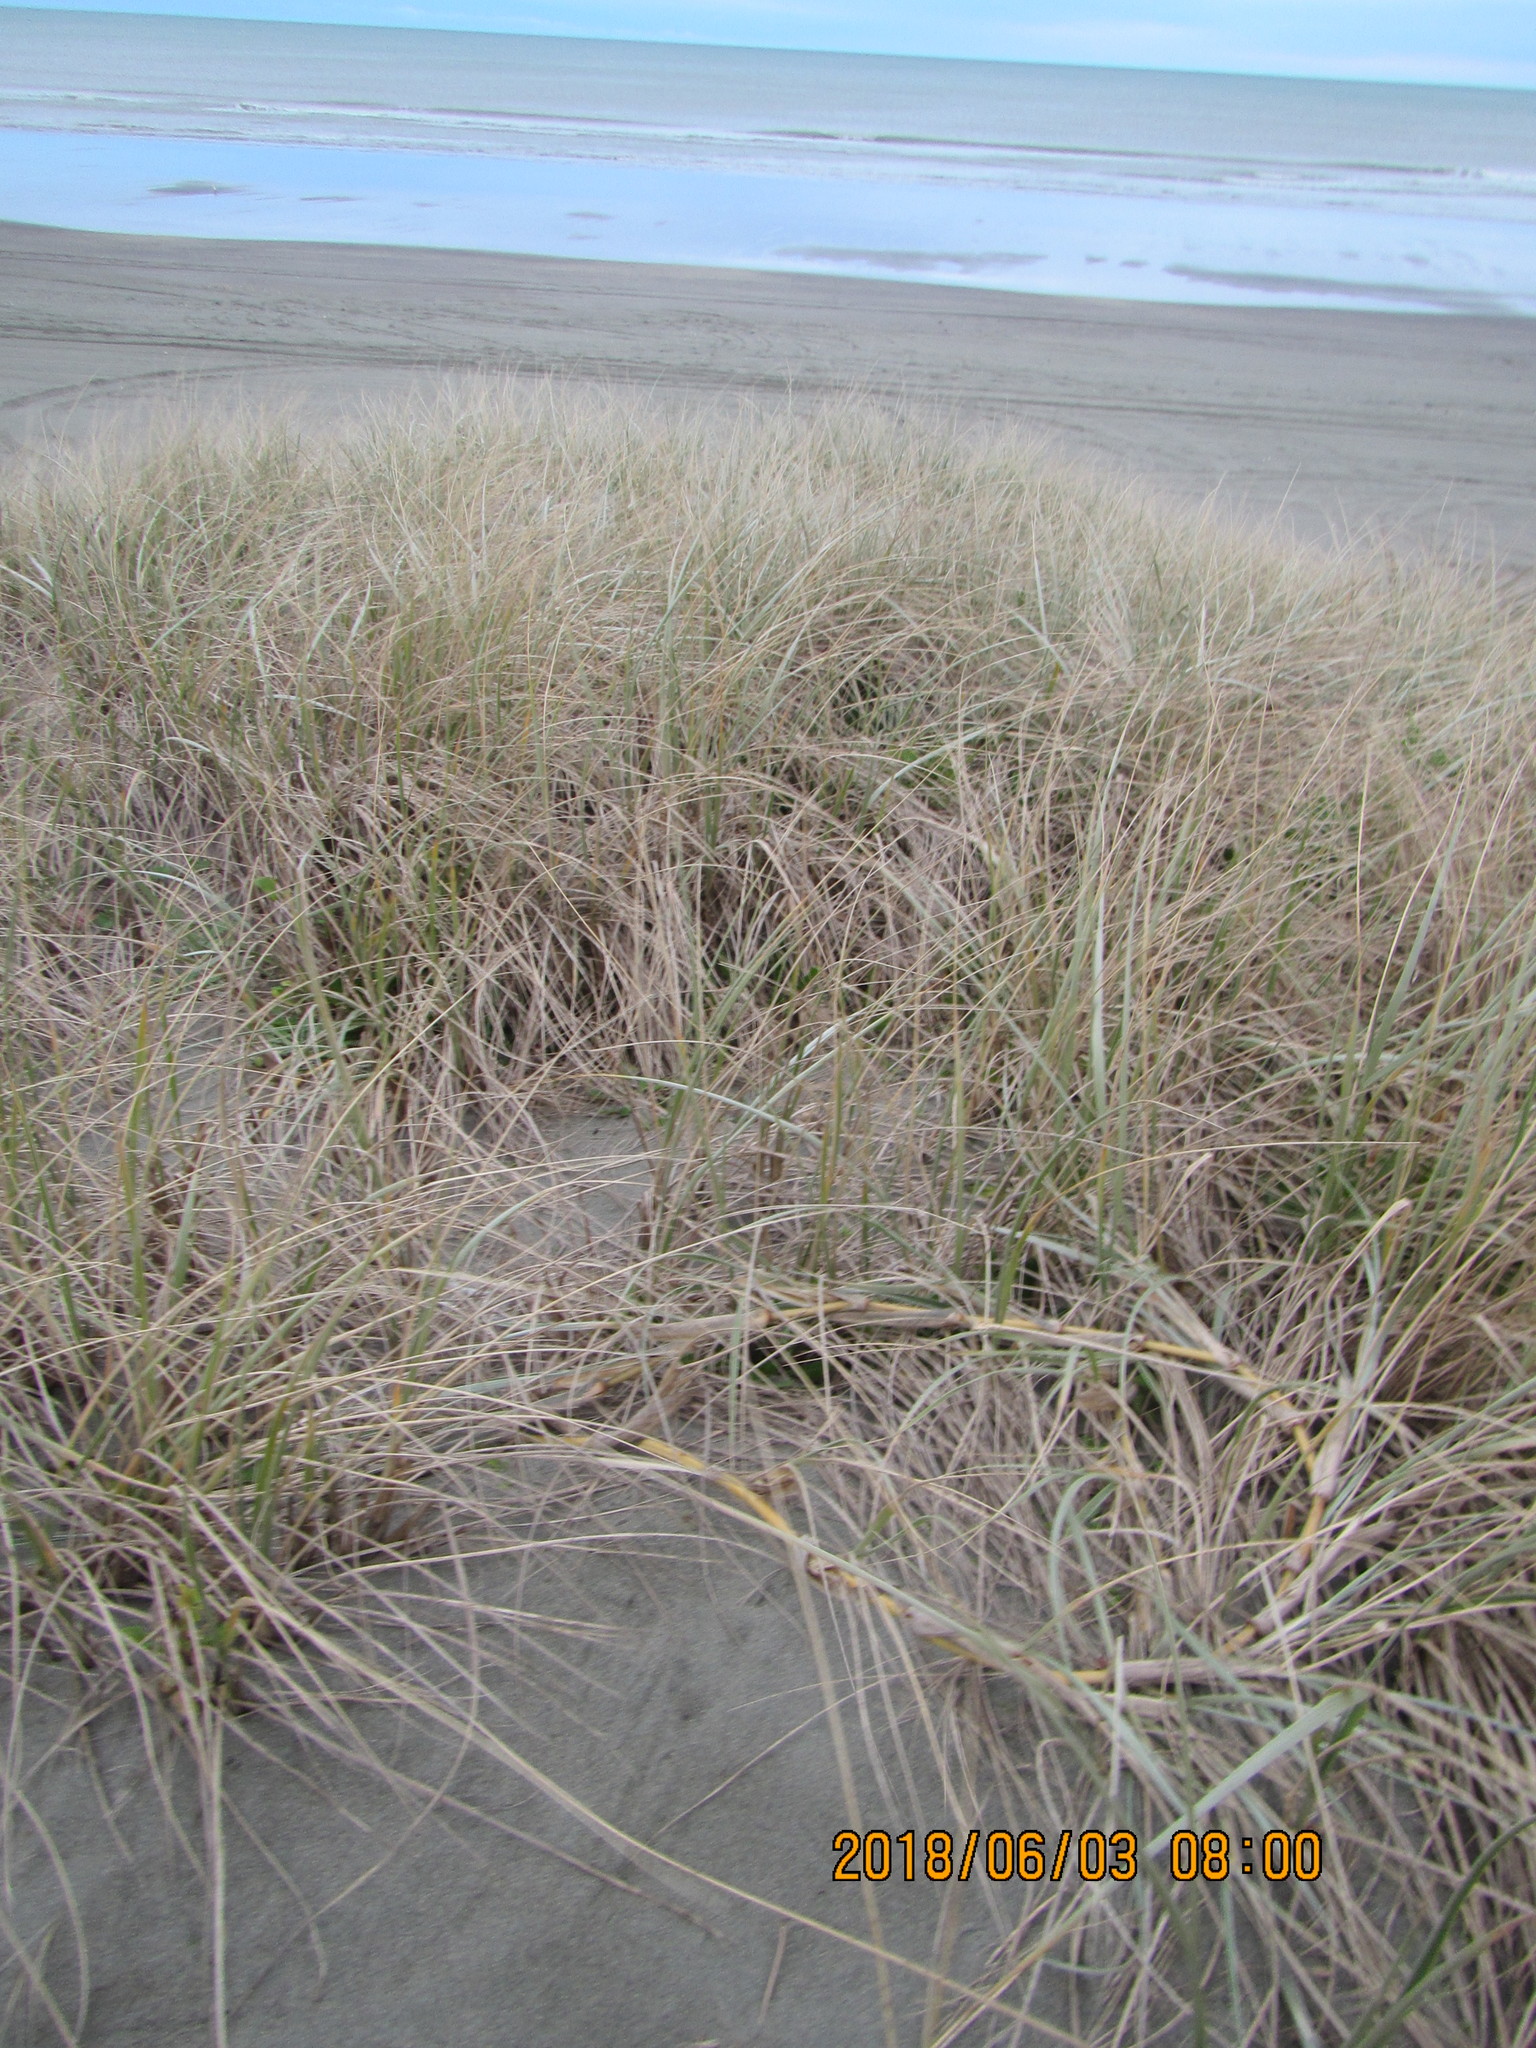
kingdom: Plantae
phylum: Tracheophyta
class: Liliopsida
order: Poales
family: Poaceae
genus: Spinifex
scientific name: Spinifex sericeus
